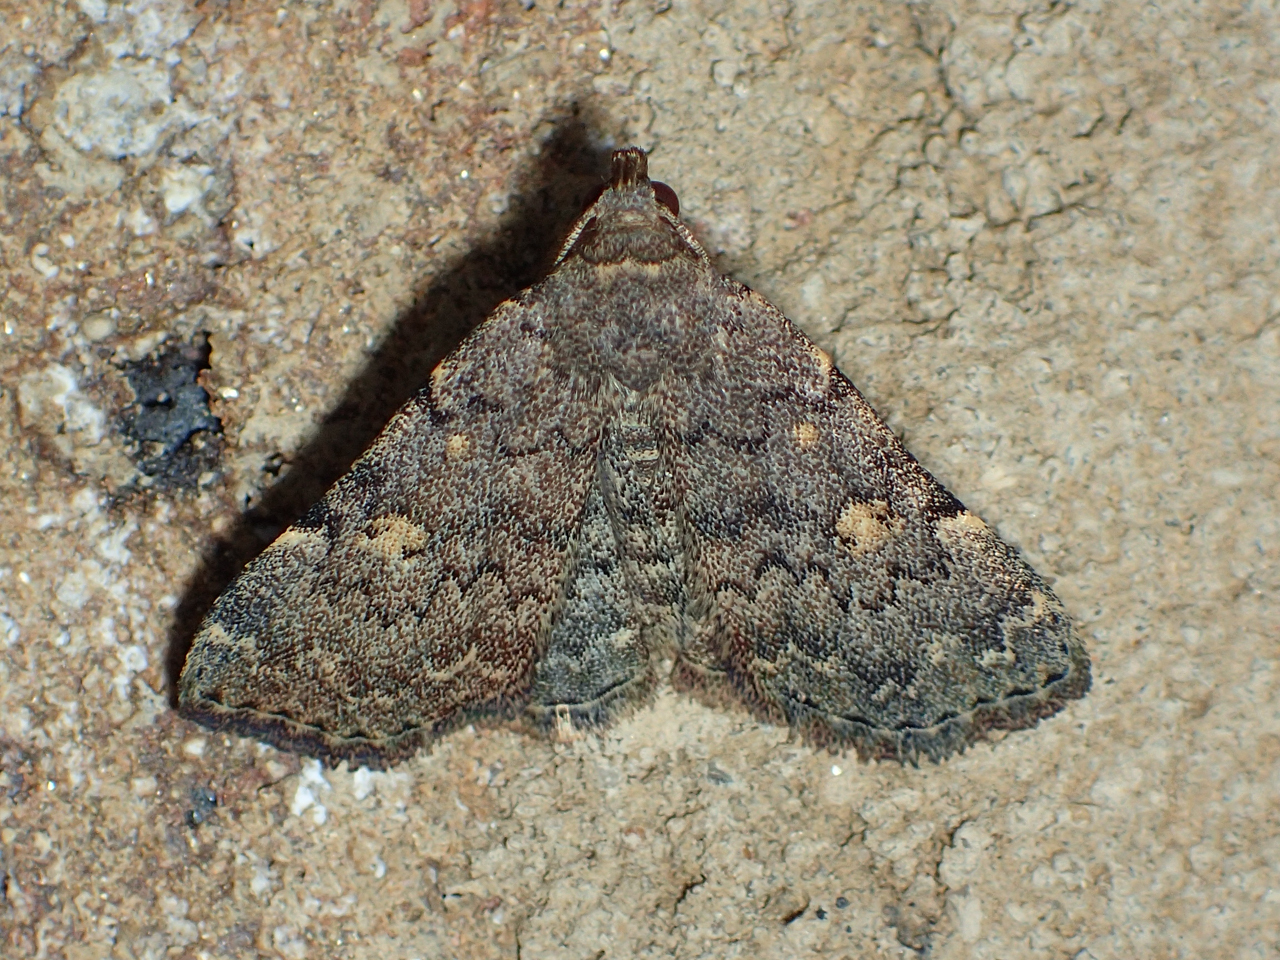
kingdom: Animalia
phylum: Arthropoda
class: Insecta
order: Lepidoptera
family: Erebidae
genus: Idia
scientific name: Idia aemula
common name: Common idia moth
